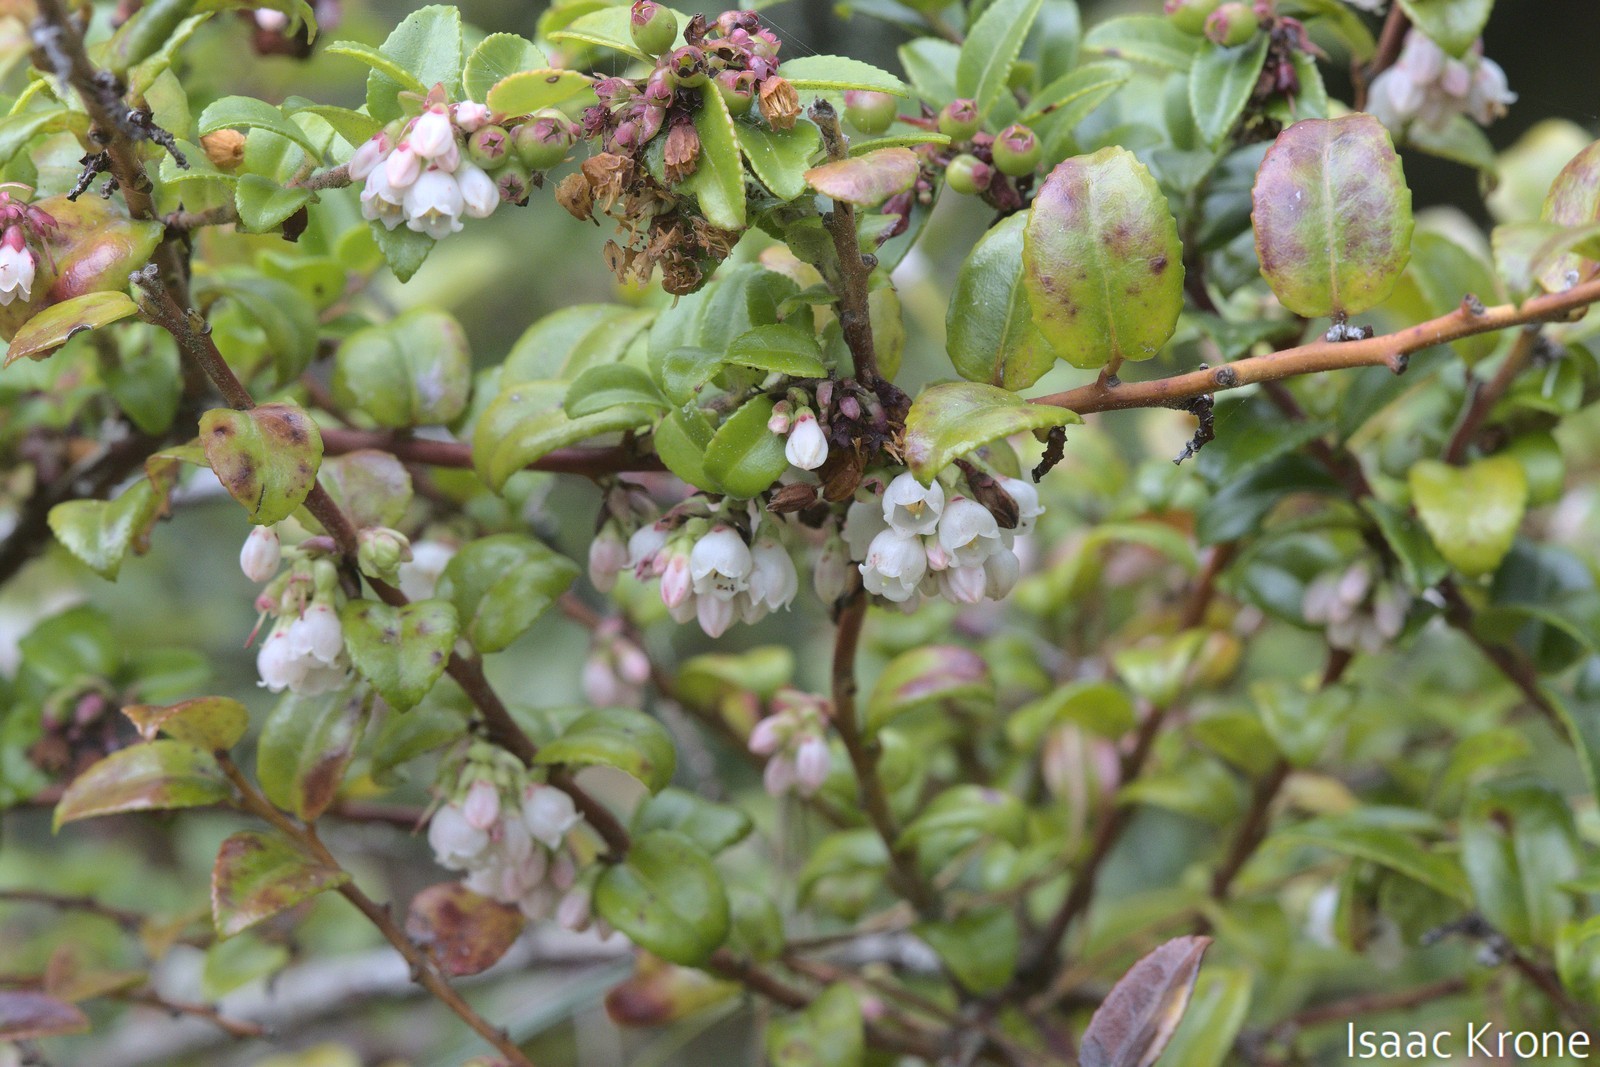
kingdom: Plantae
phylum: Tracheophyta
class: Magnoliopsida
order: Ericales
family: Ericaceae
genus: Vaccinium
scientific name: Vaccinium ovatum
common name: California-huckleberry
